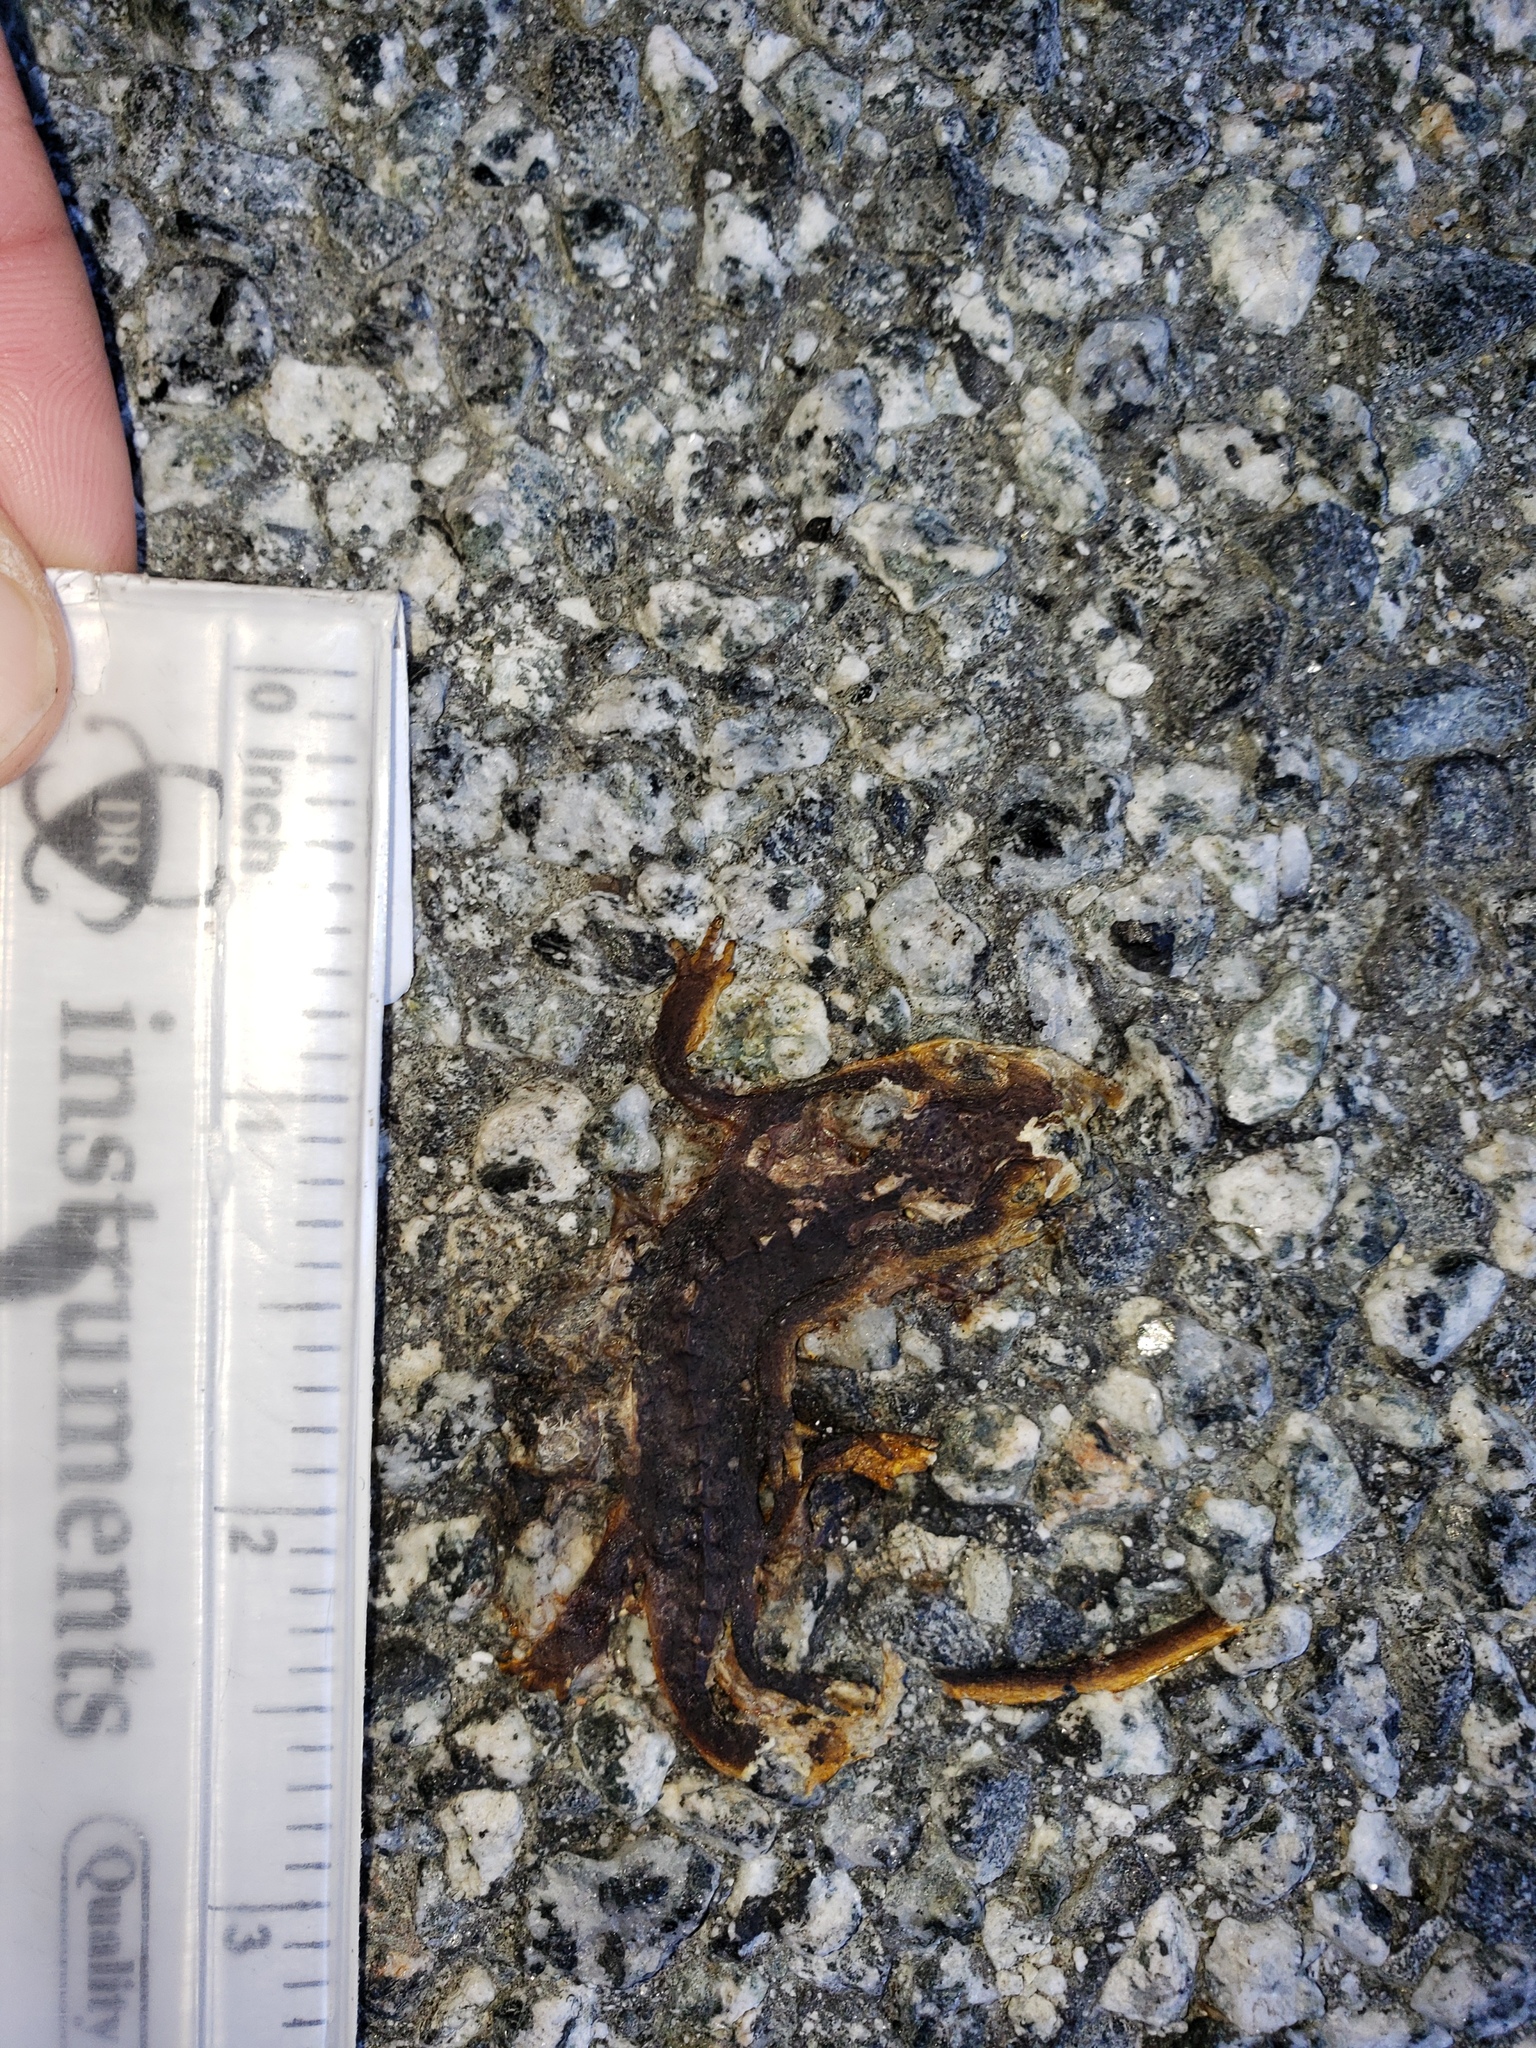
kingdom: Animalia
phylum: Chordata
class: Amphibia
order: Caudata
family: Salamandridae
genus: Taricha
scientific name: Taricha
